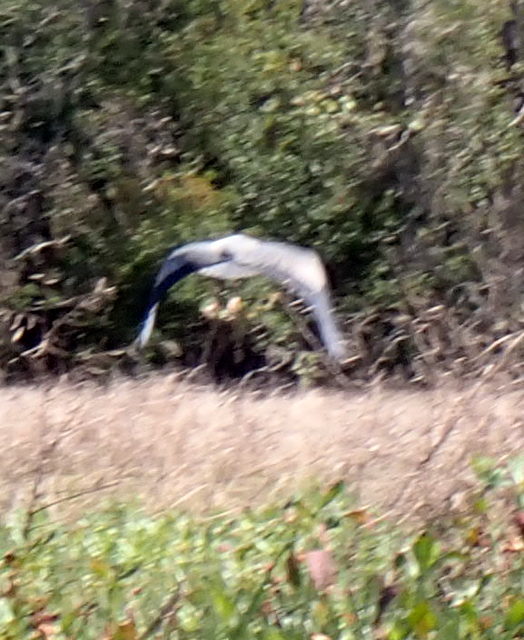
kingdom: Animalia
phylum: Chordata
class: Aves
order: Pelecaniformes
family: Ardeidae
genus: Ardea
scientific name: Ardea herodias
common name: Great blue heron
